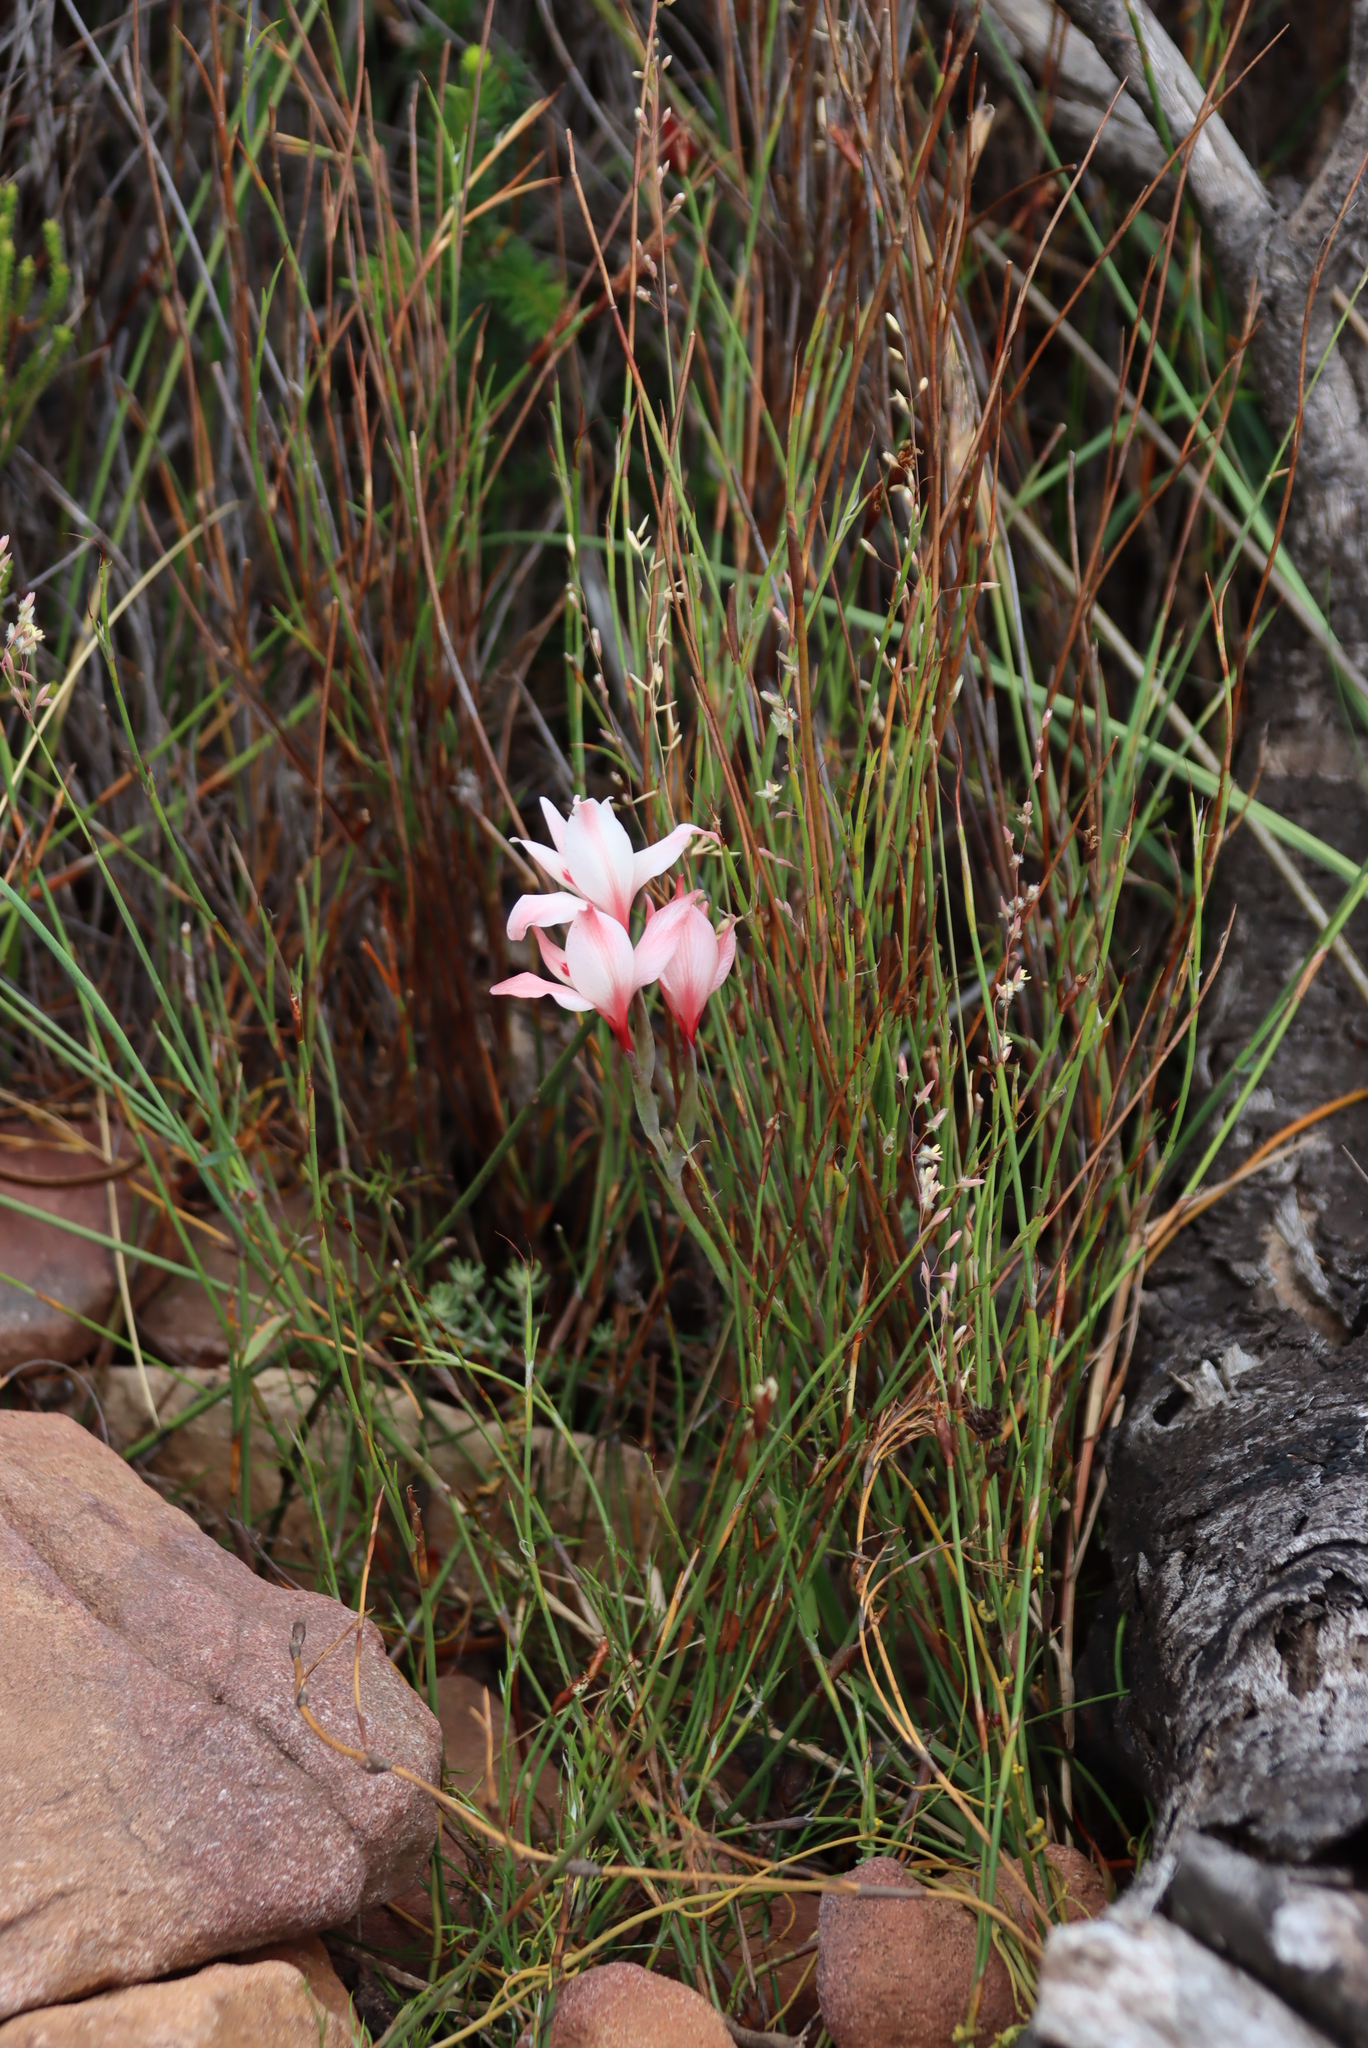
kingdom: Plantae
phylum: Tracheophyta
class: Liliopsida
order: Asparagales
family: Iridaceae
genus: Gladiolus
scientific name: Gladiolus carneus
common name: Painted-lady
